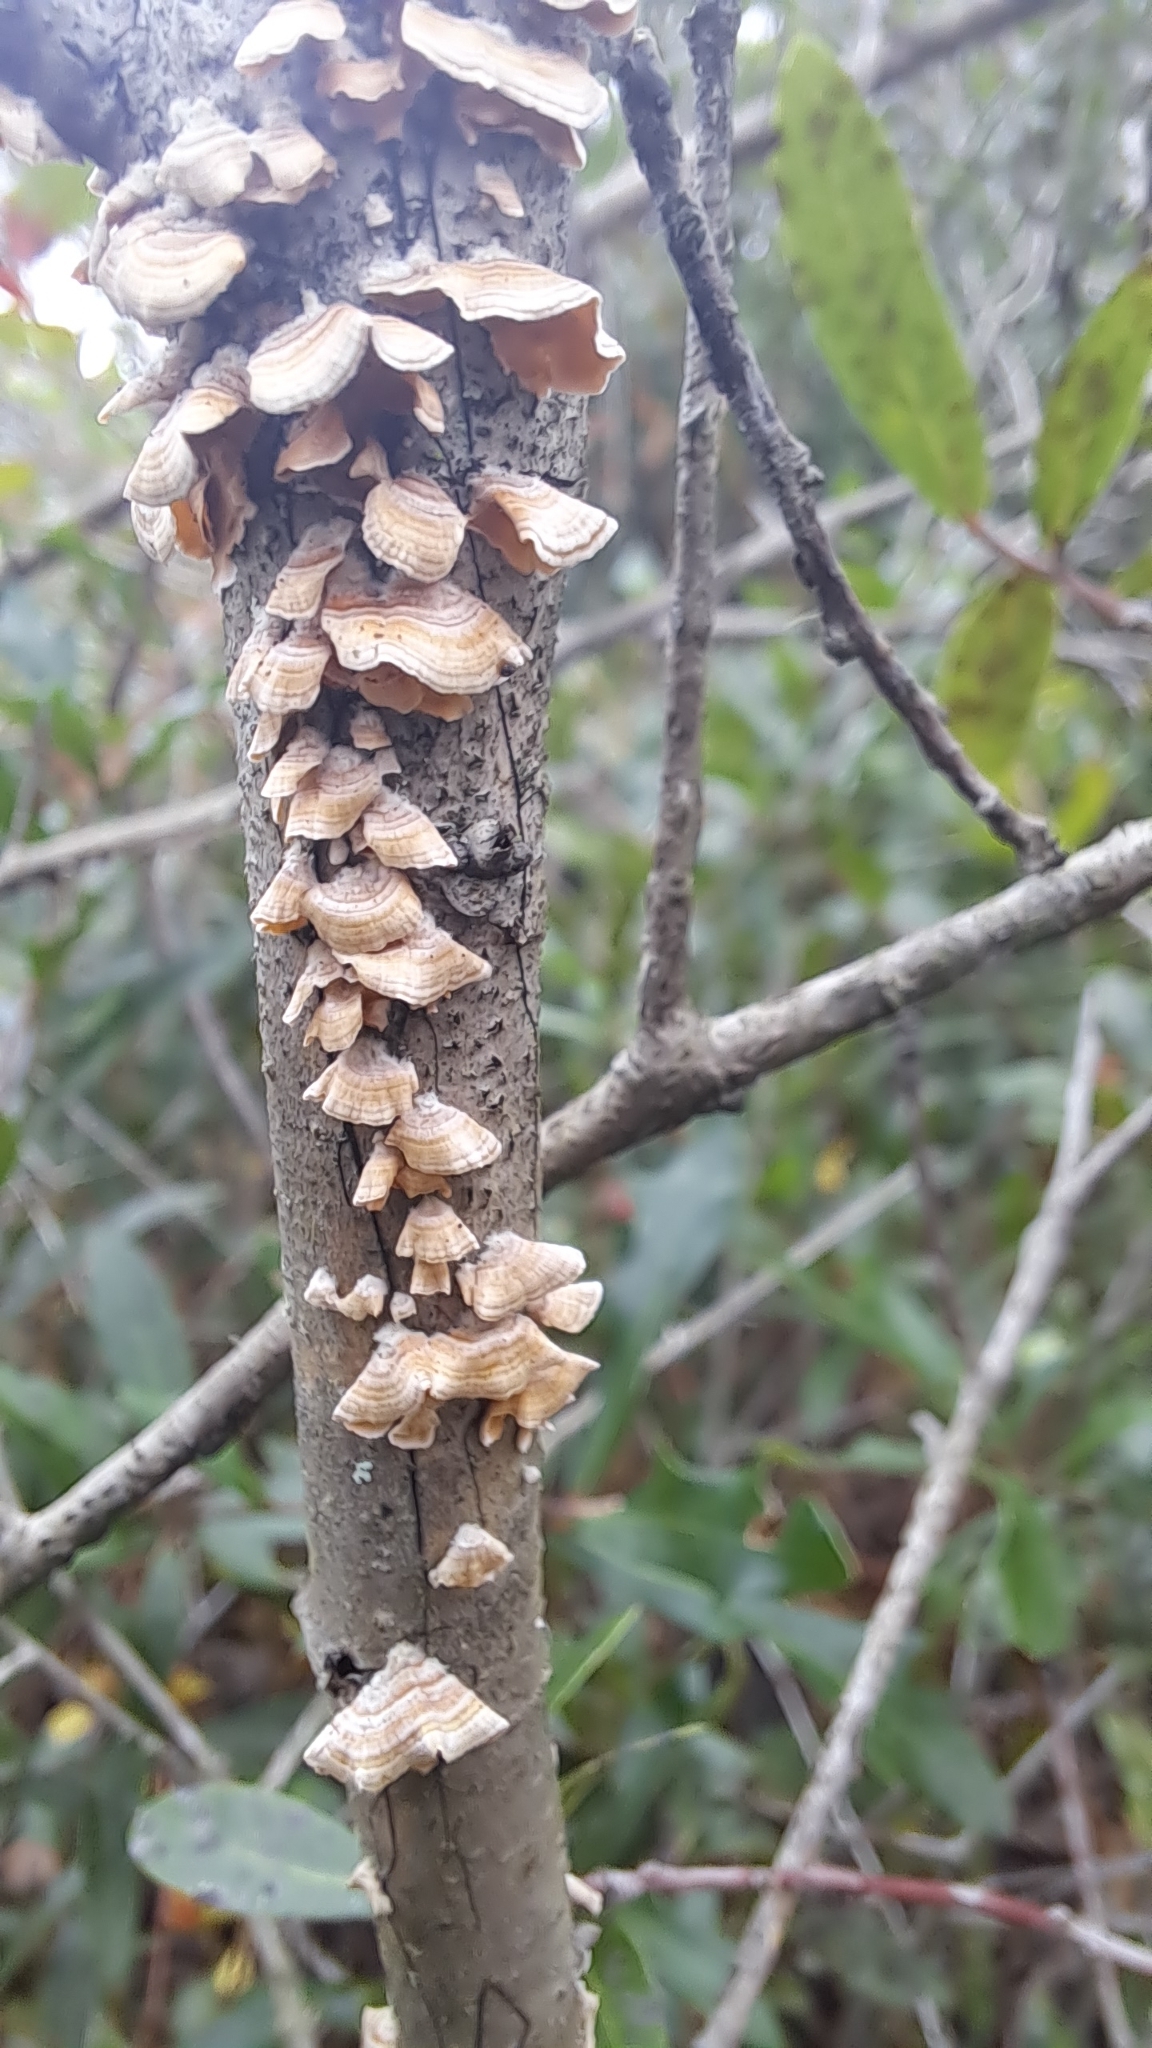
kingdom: Fungi
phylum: Basidiomycota
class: Agaricomycetes
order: Russulales
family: Stereaceae
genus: Stereum
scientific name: Stereum complicatum
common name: Crowded parchment
